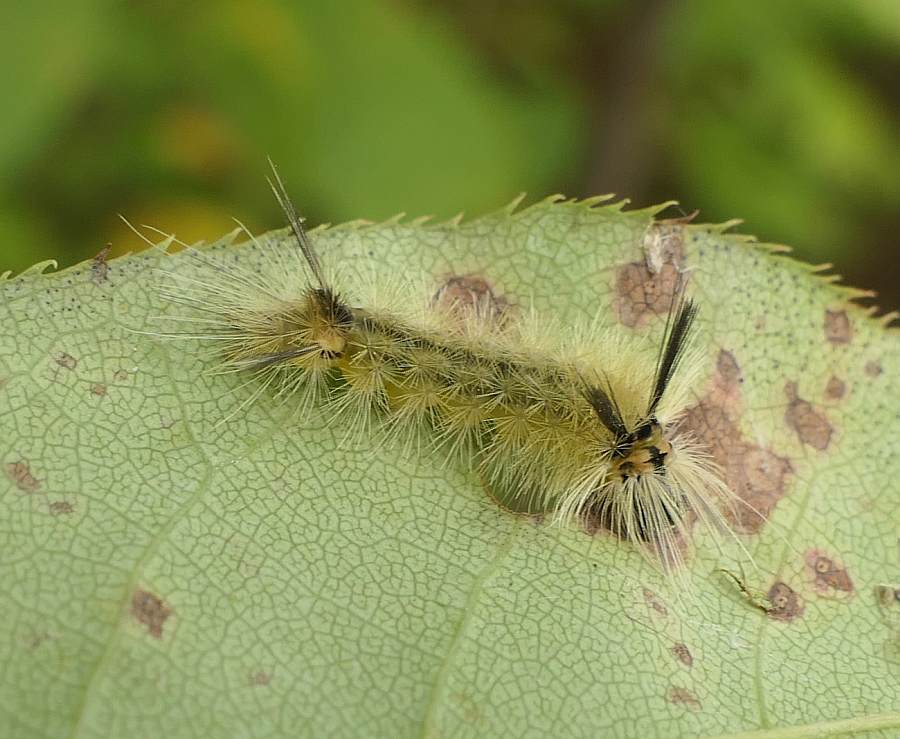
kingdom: Animalia
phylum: Arthropoda
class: Insecta
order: Lepidoptera
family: Erebidae
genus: Halysidota
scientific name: Halysidota tessellaris
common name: Banded tussock moth
